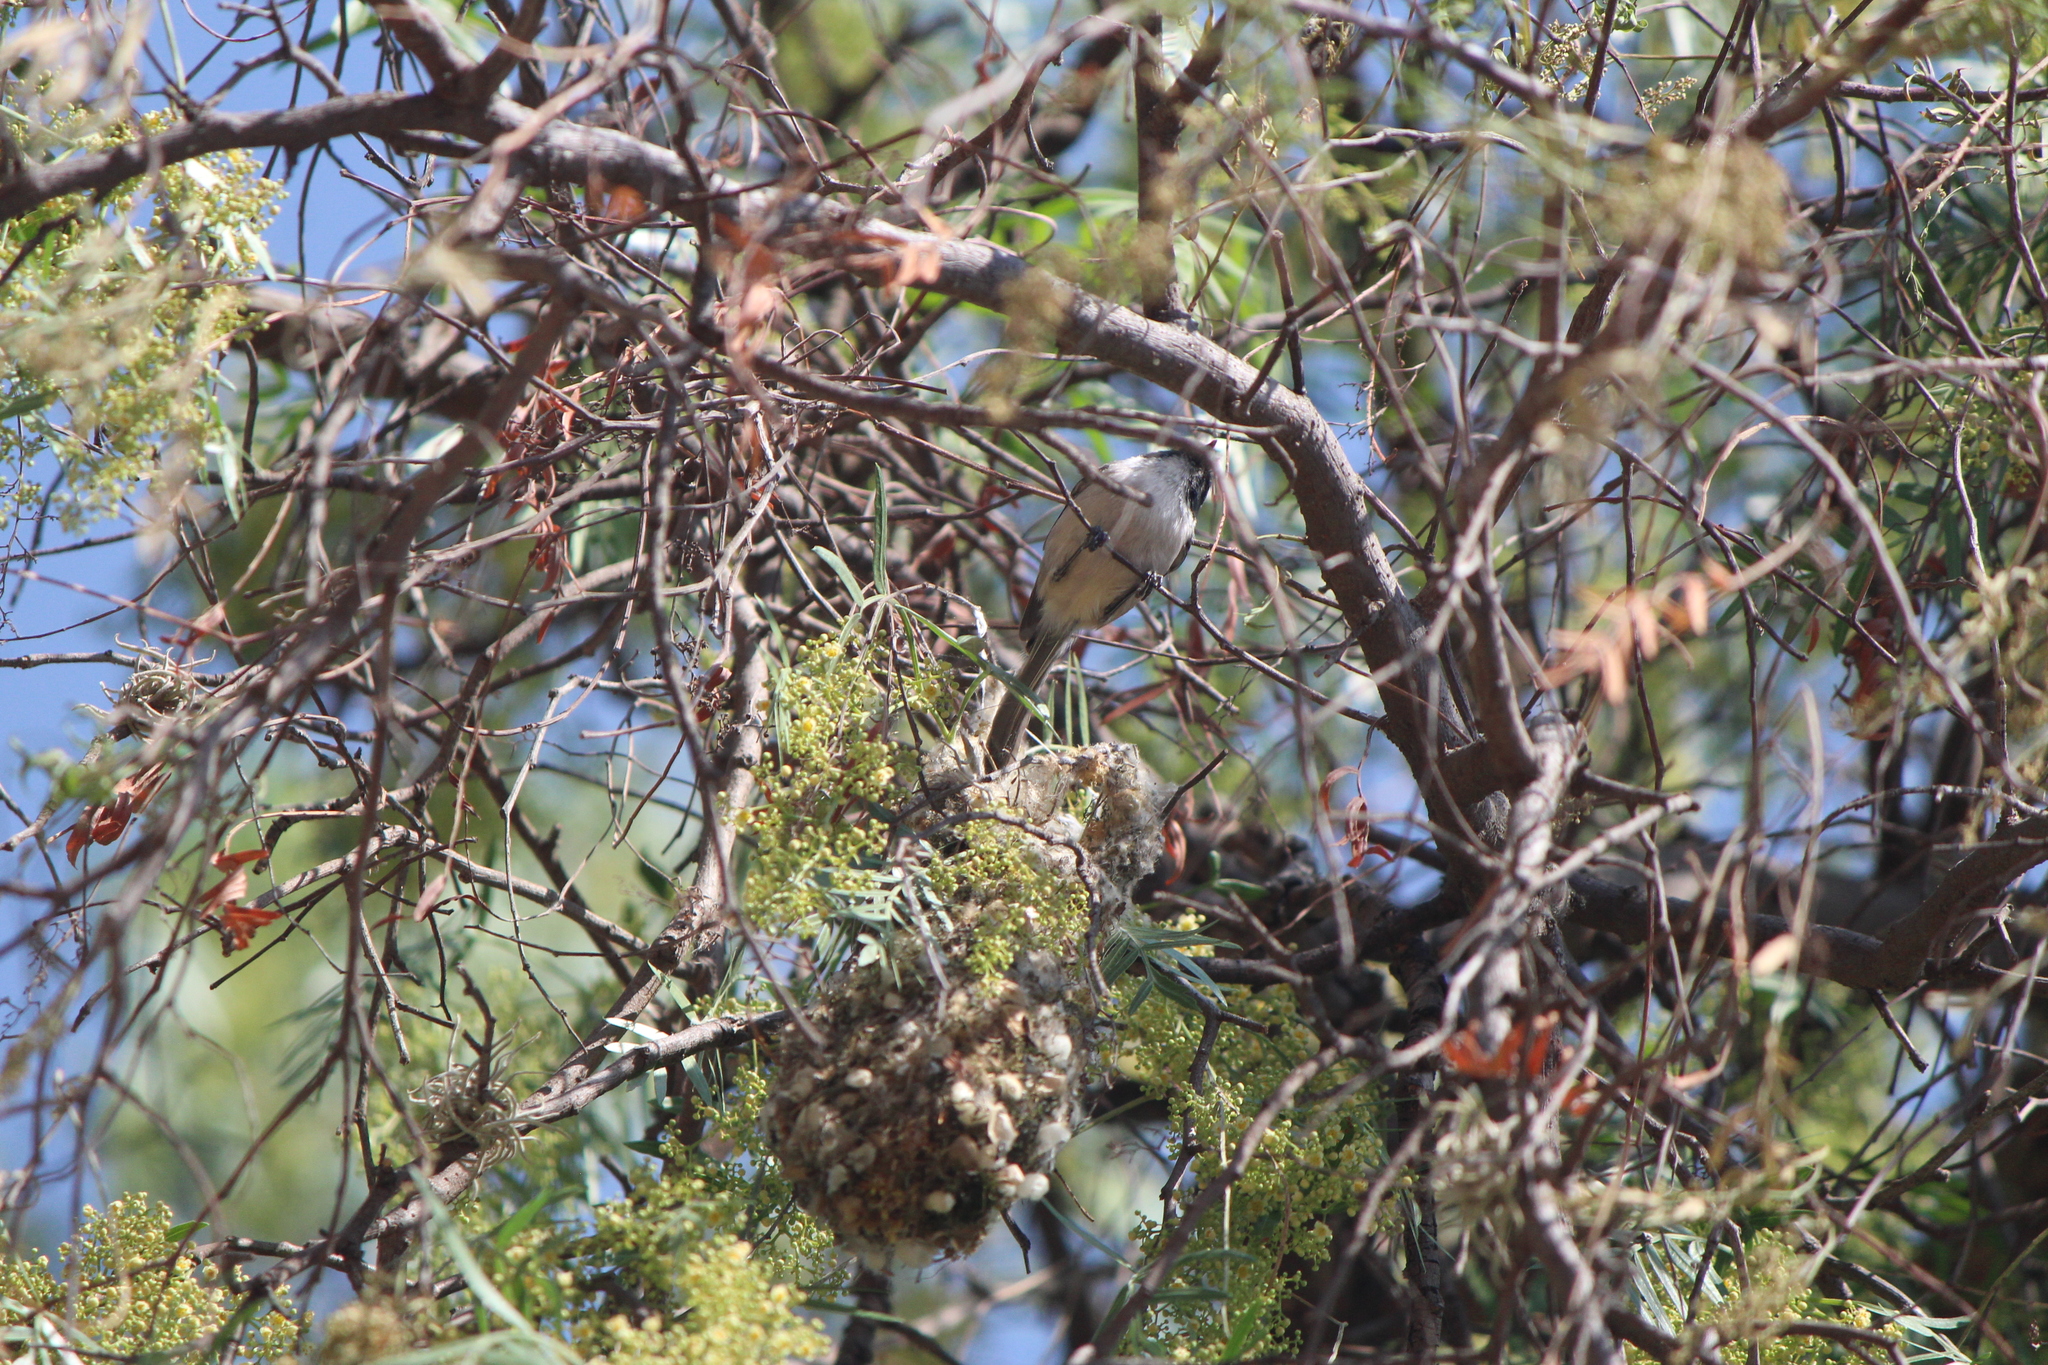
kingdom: Animalia
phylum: Chordata
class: Aves
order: Passeriformes
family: Aegithalidae
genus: Psaltriparus
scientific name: Psaltriparus minimus
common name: American bushtit
